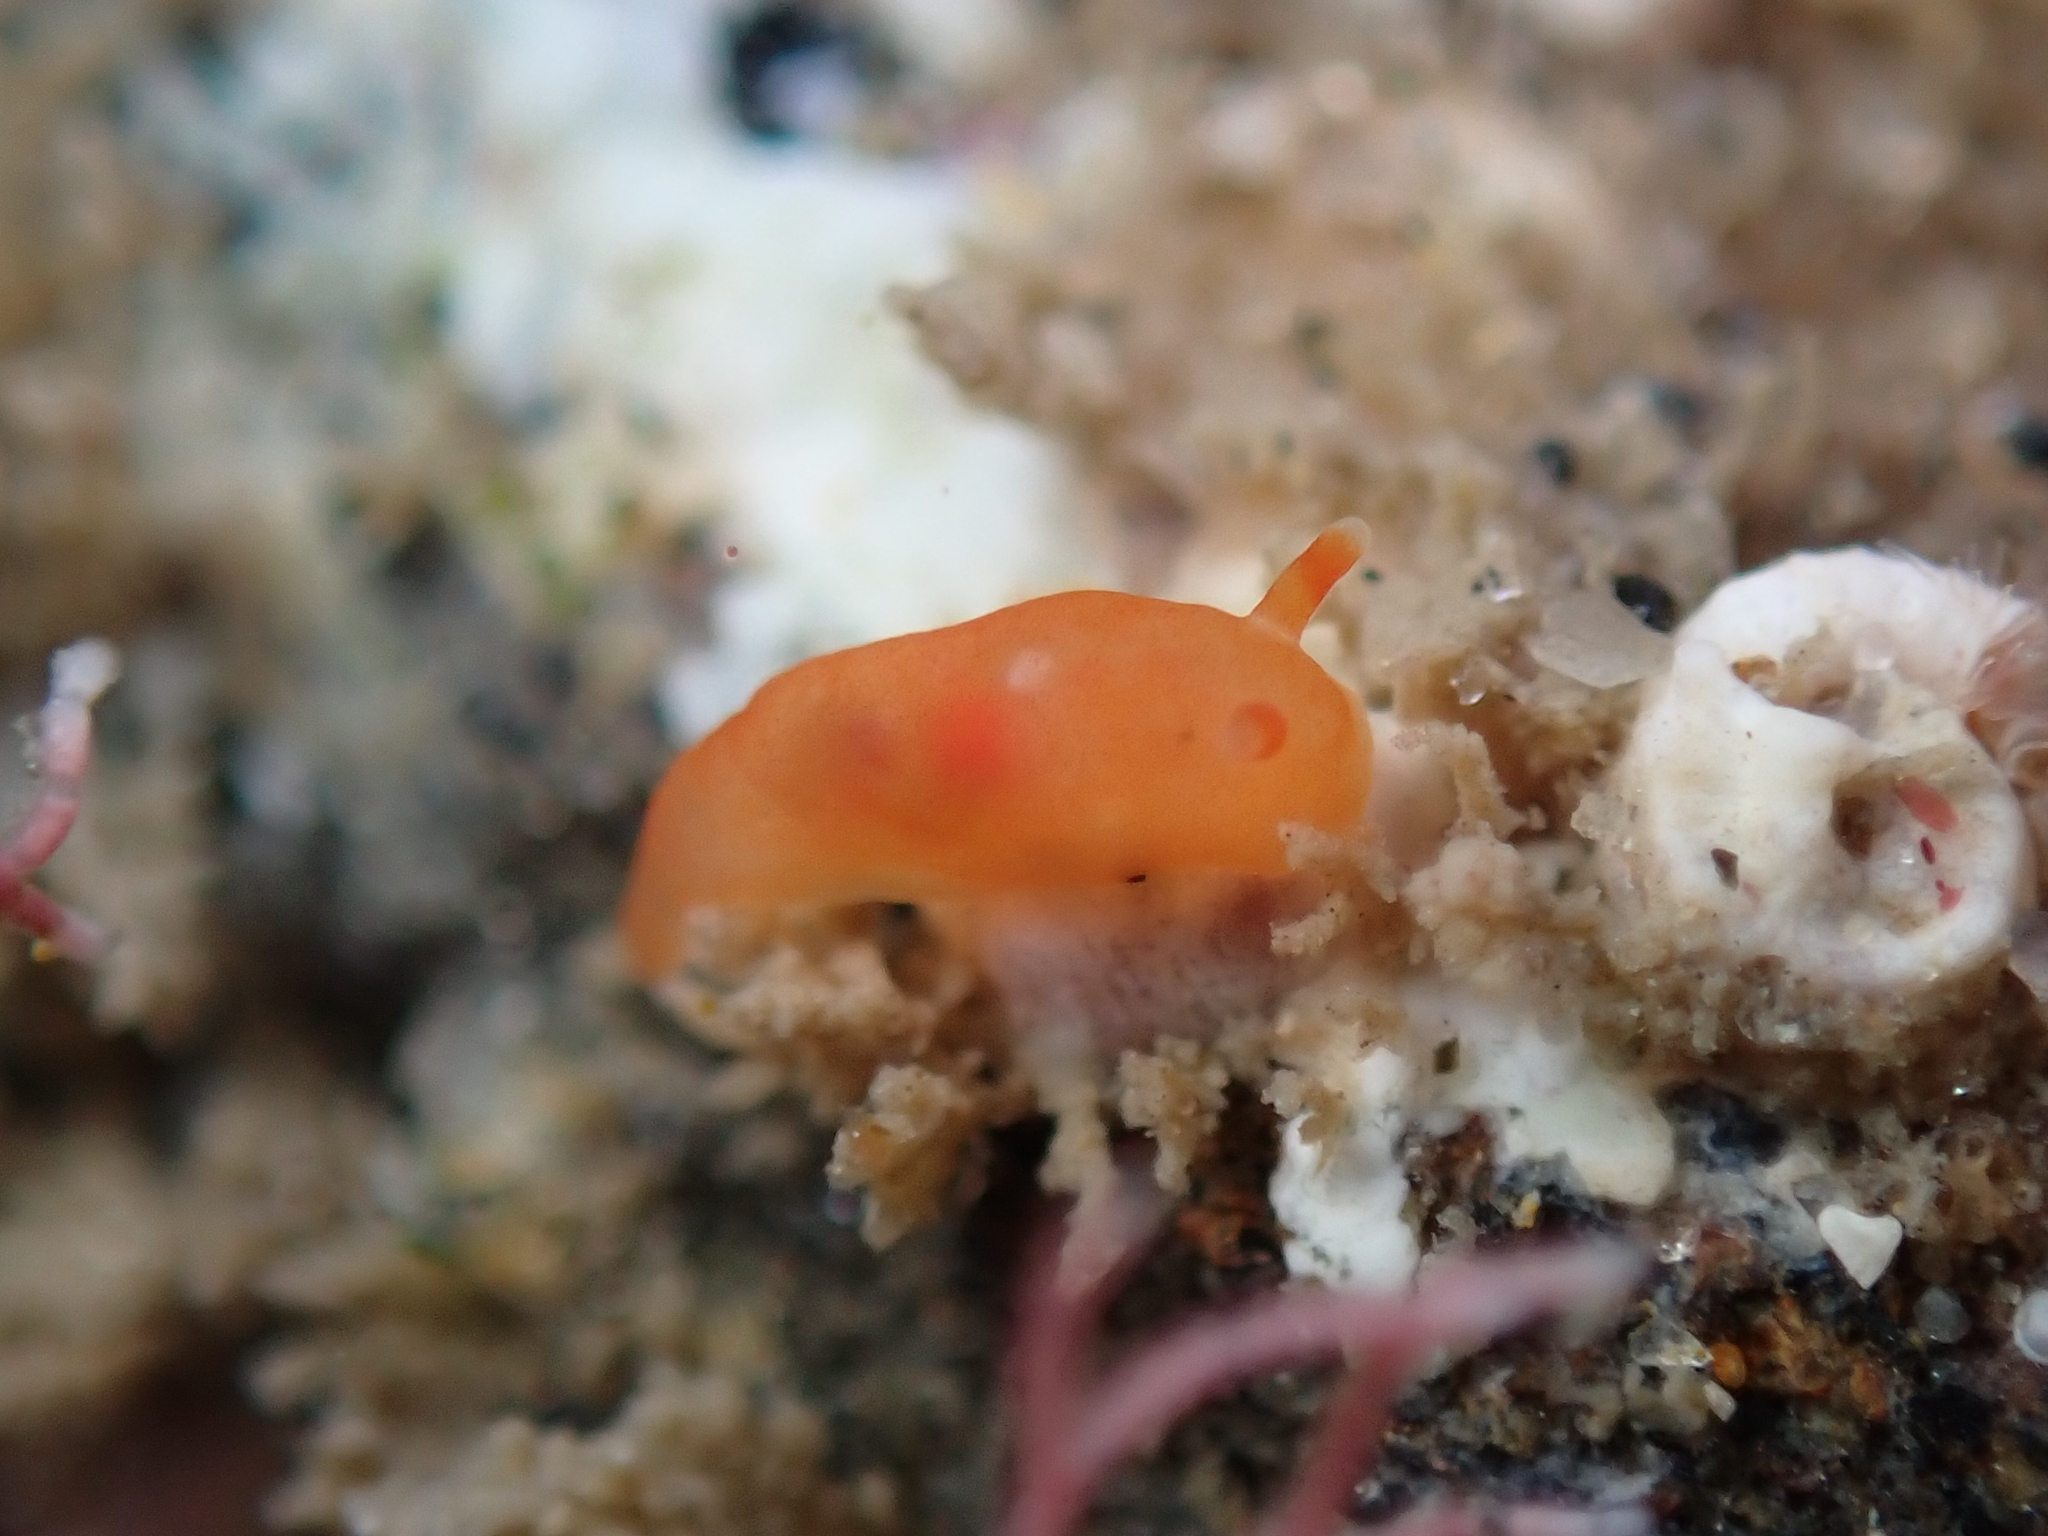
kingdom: Animalia
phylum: Mollusca
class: Gastropoda
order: Nudibranchia
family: Okadaiidae
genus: Vayssierea
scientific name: Vayssierea felis
